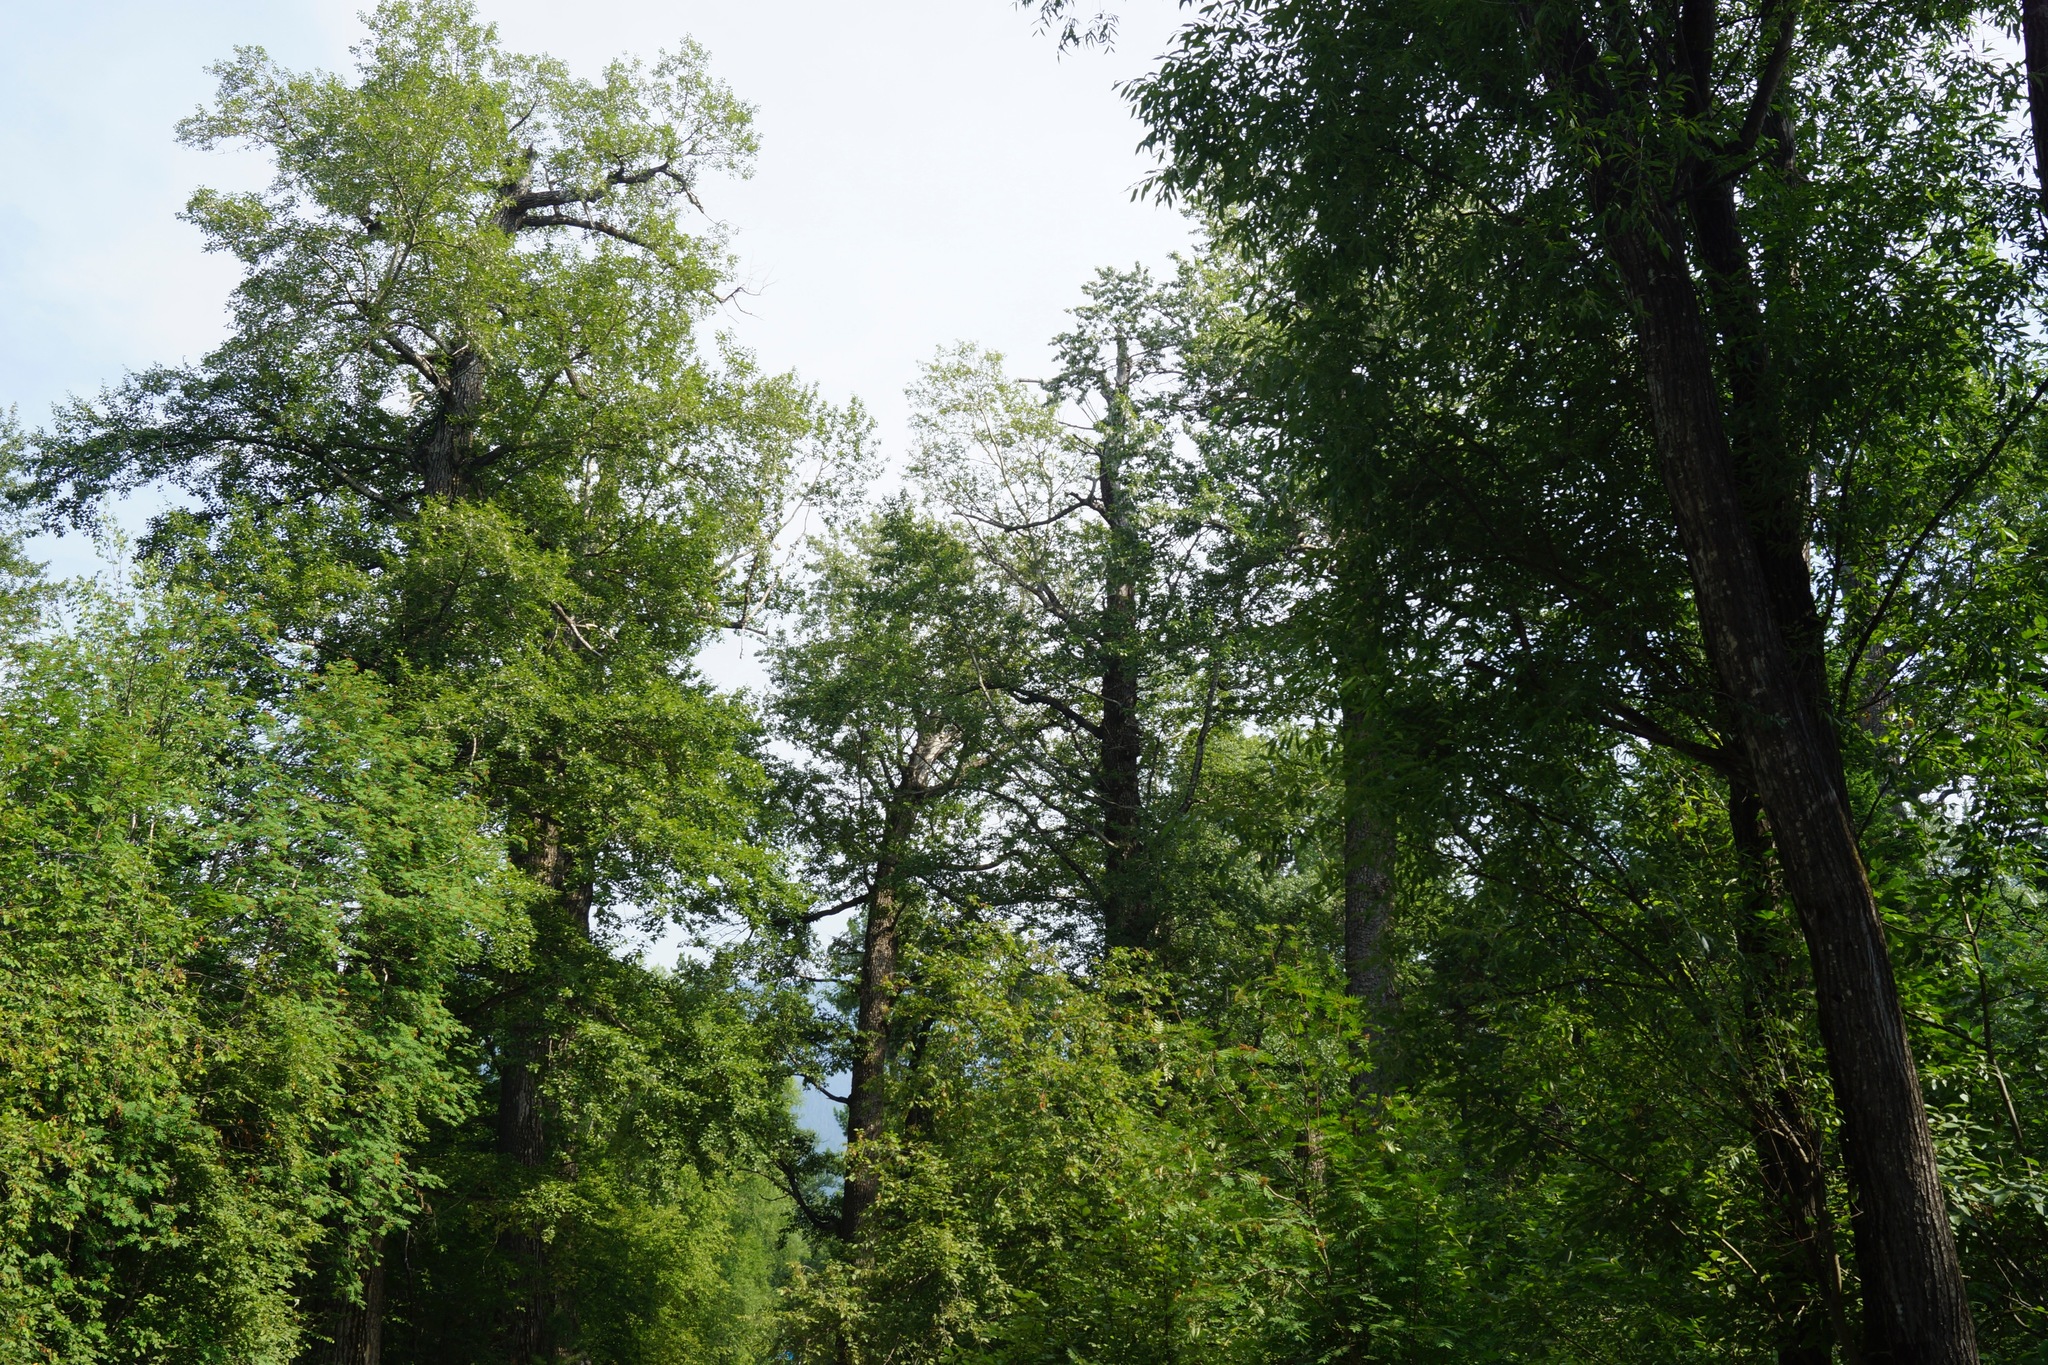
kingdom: Plantae
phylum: Tracheophyta
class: Magnoliopsida
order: Malpighiales
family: Salicaceae
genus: Populus
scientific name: Populus suaveolens
